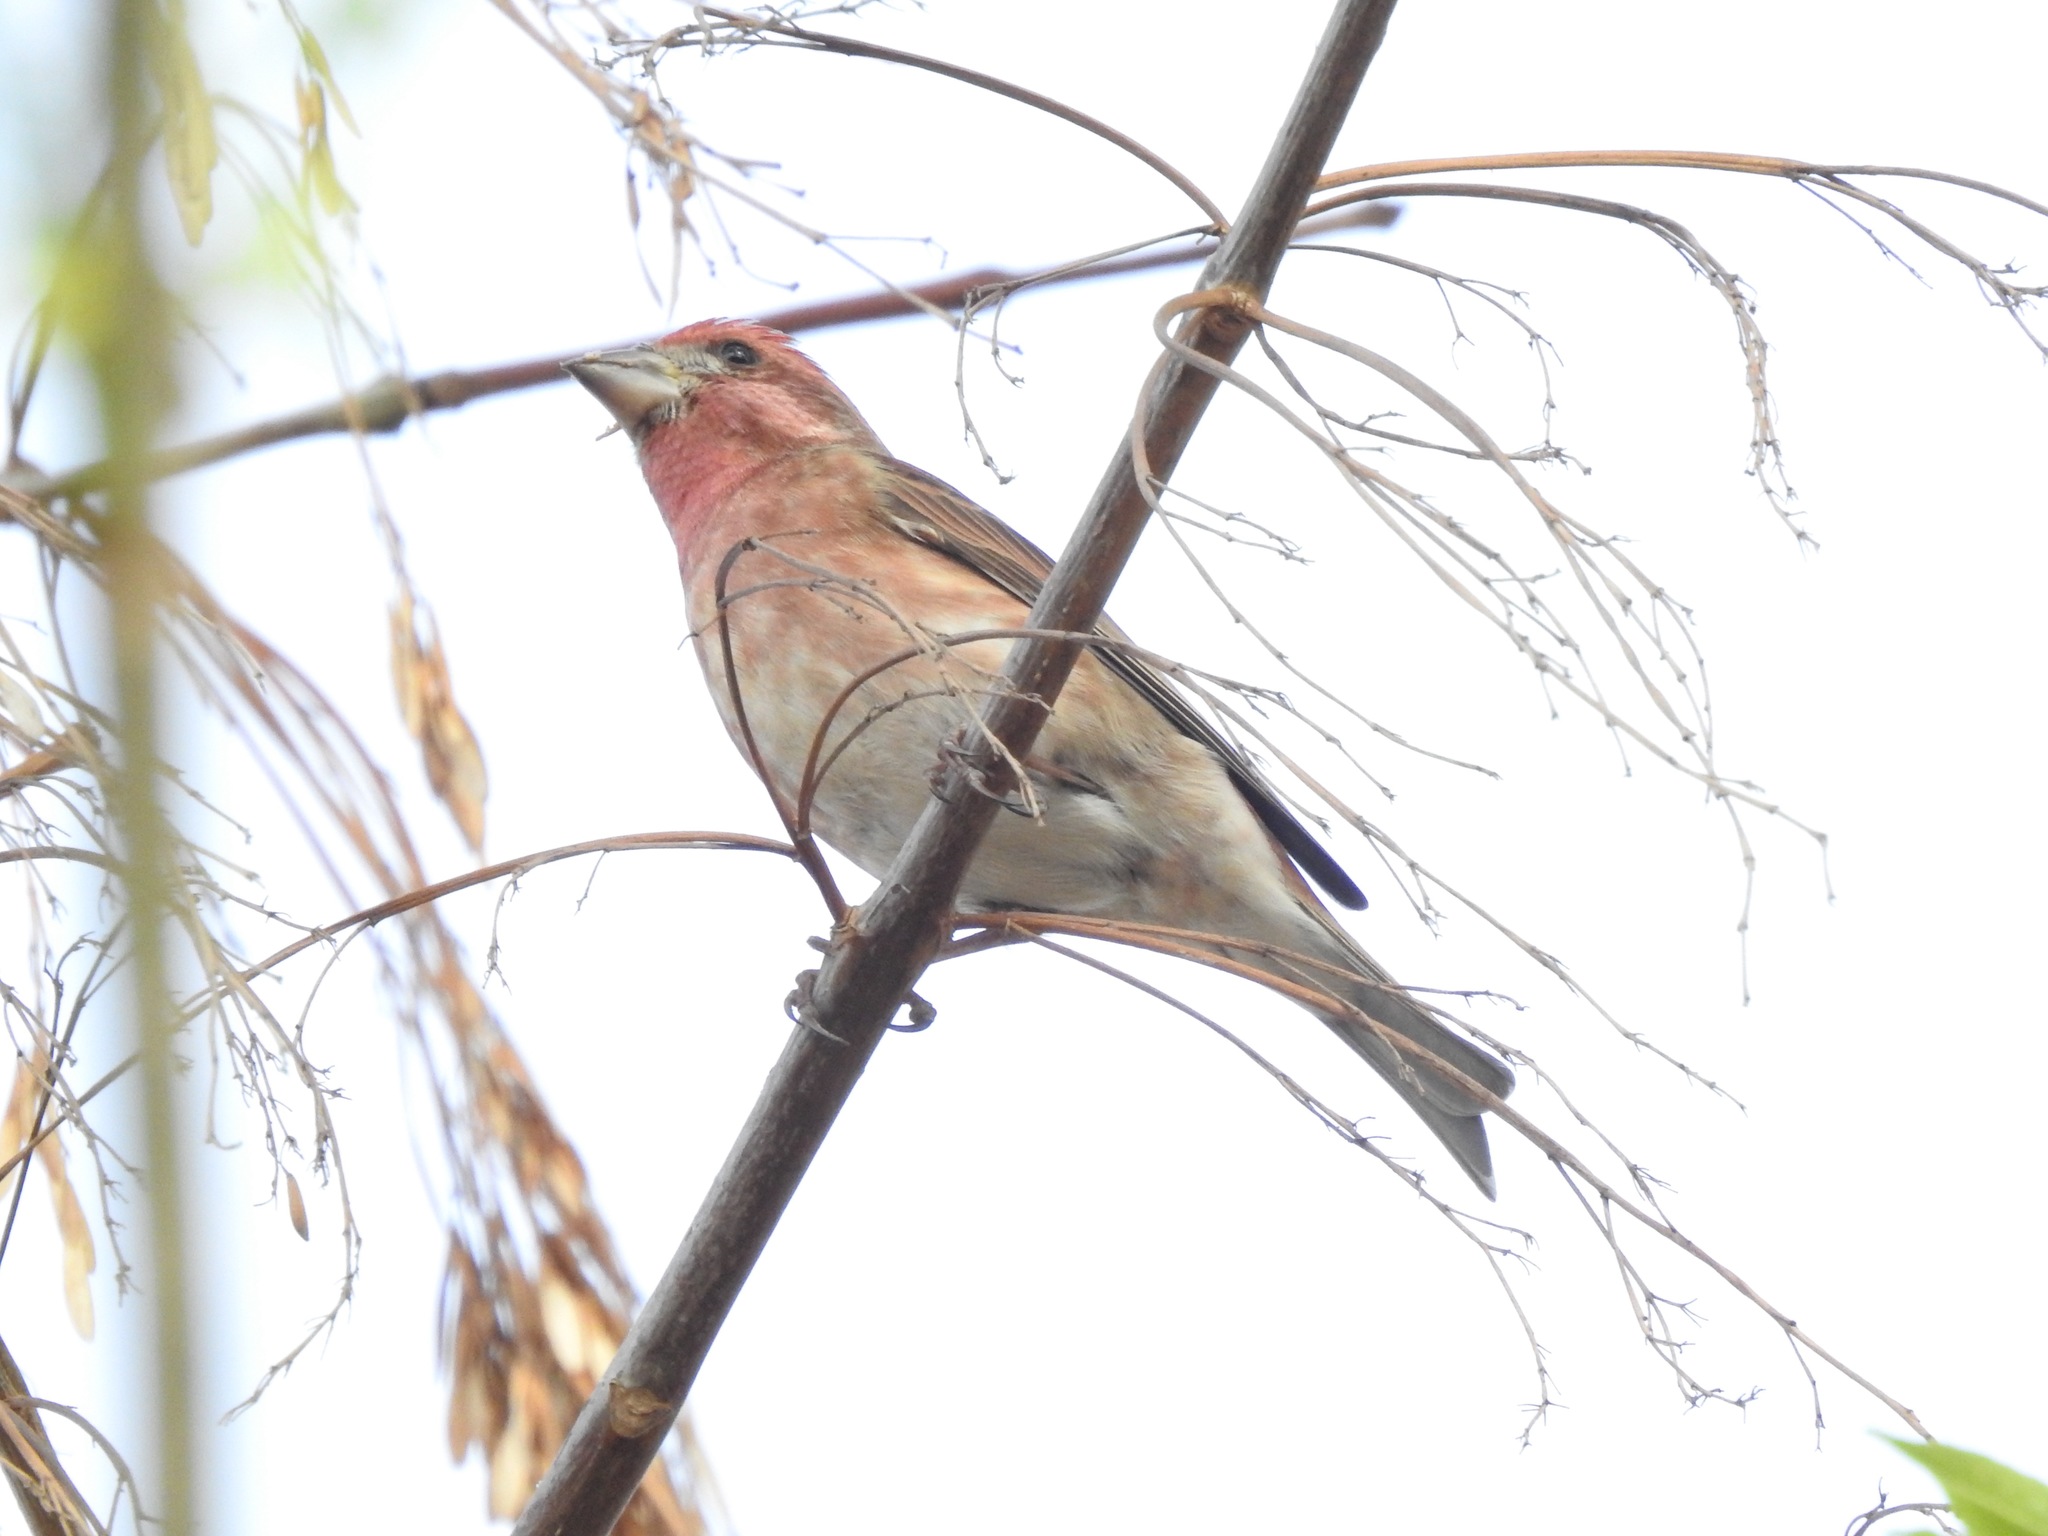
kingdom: Animalia
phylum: Chordata
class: Aves
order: Passeriformes
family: Fringillidae
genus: Haemorhous
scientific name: Haemorhous purpureus
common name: Purple finch
